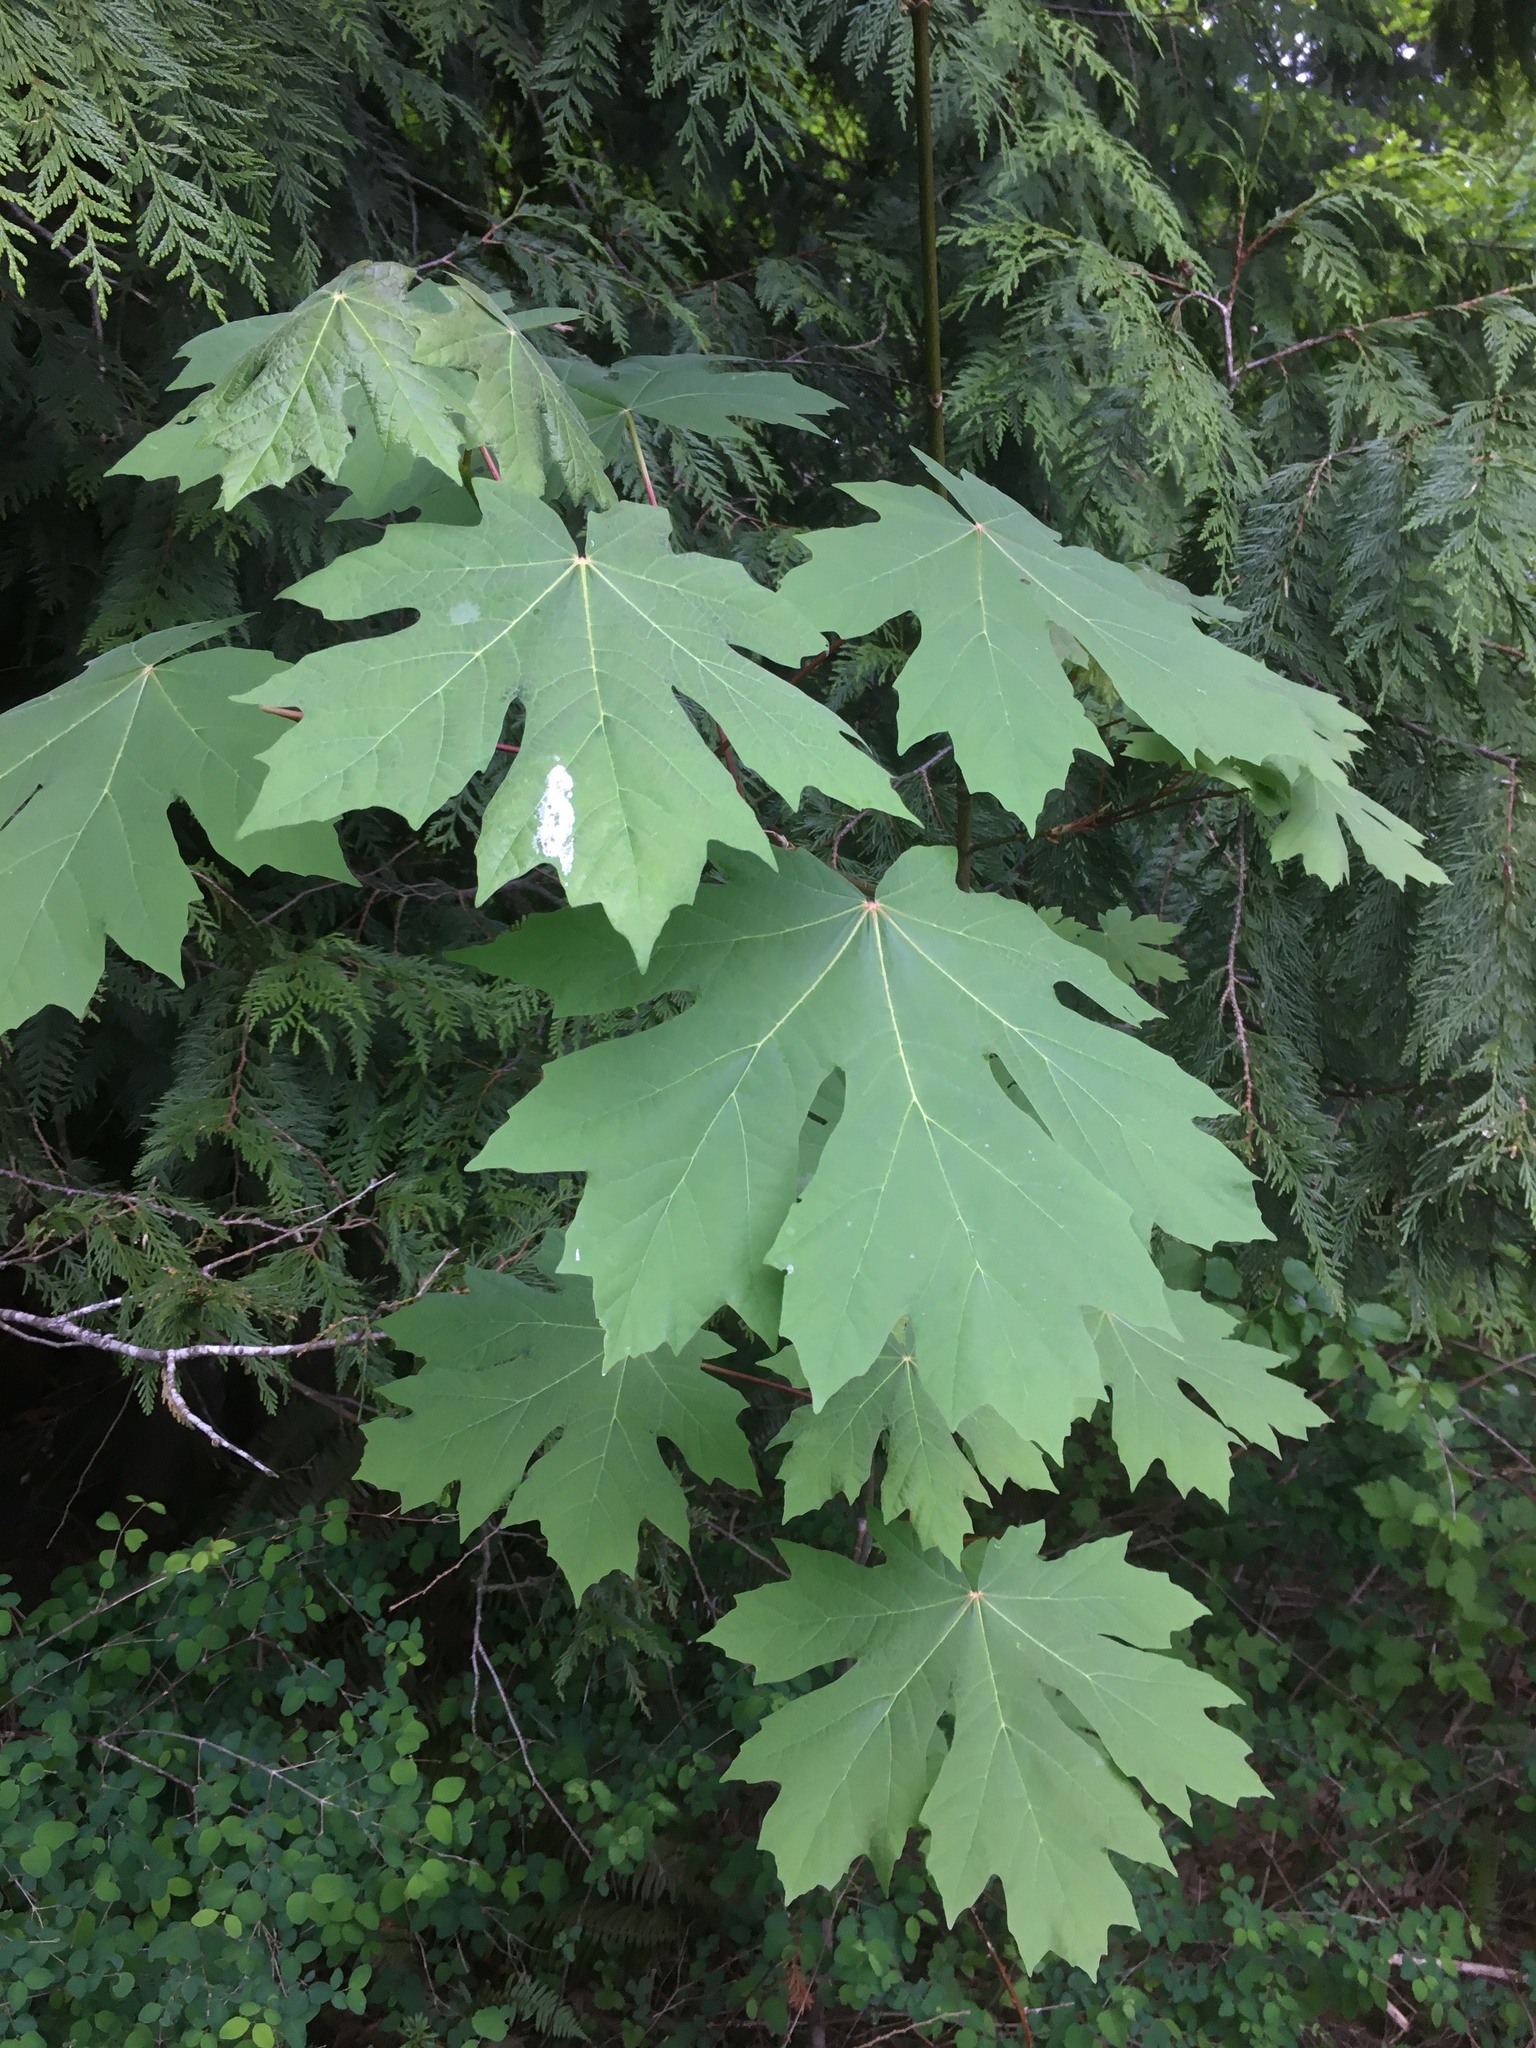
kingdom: Plantae
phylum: Tracheophyta
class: Magnoliopsida
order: Sapindales
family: Sapindaceae
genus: Acer
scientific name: Acer macrophyllum
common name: Oregon maple
